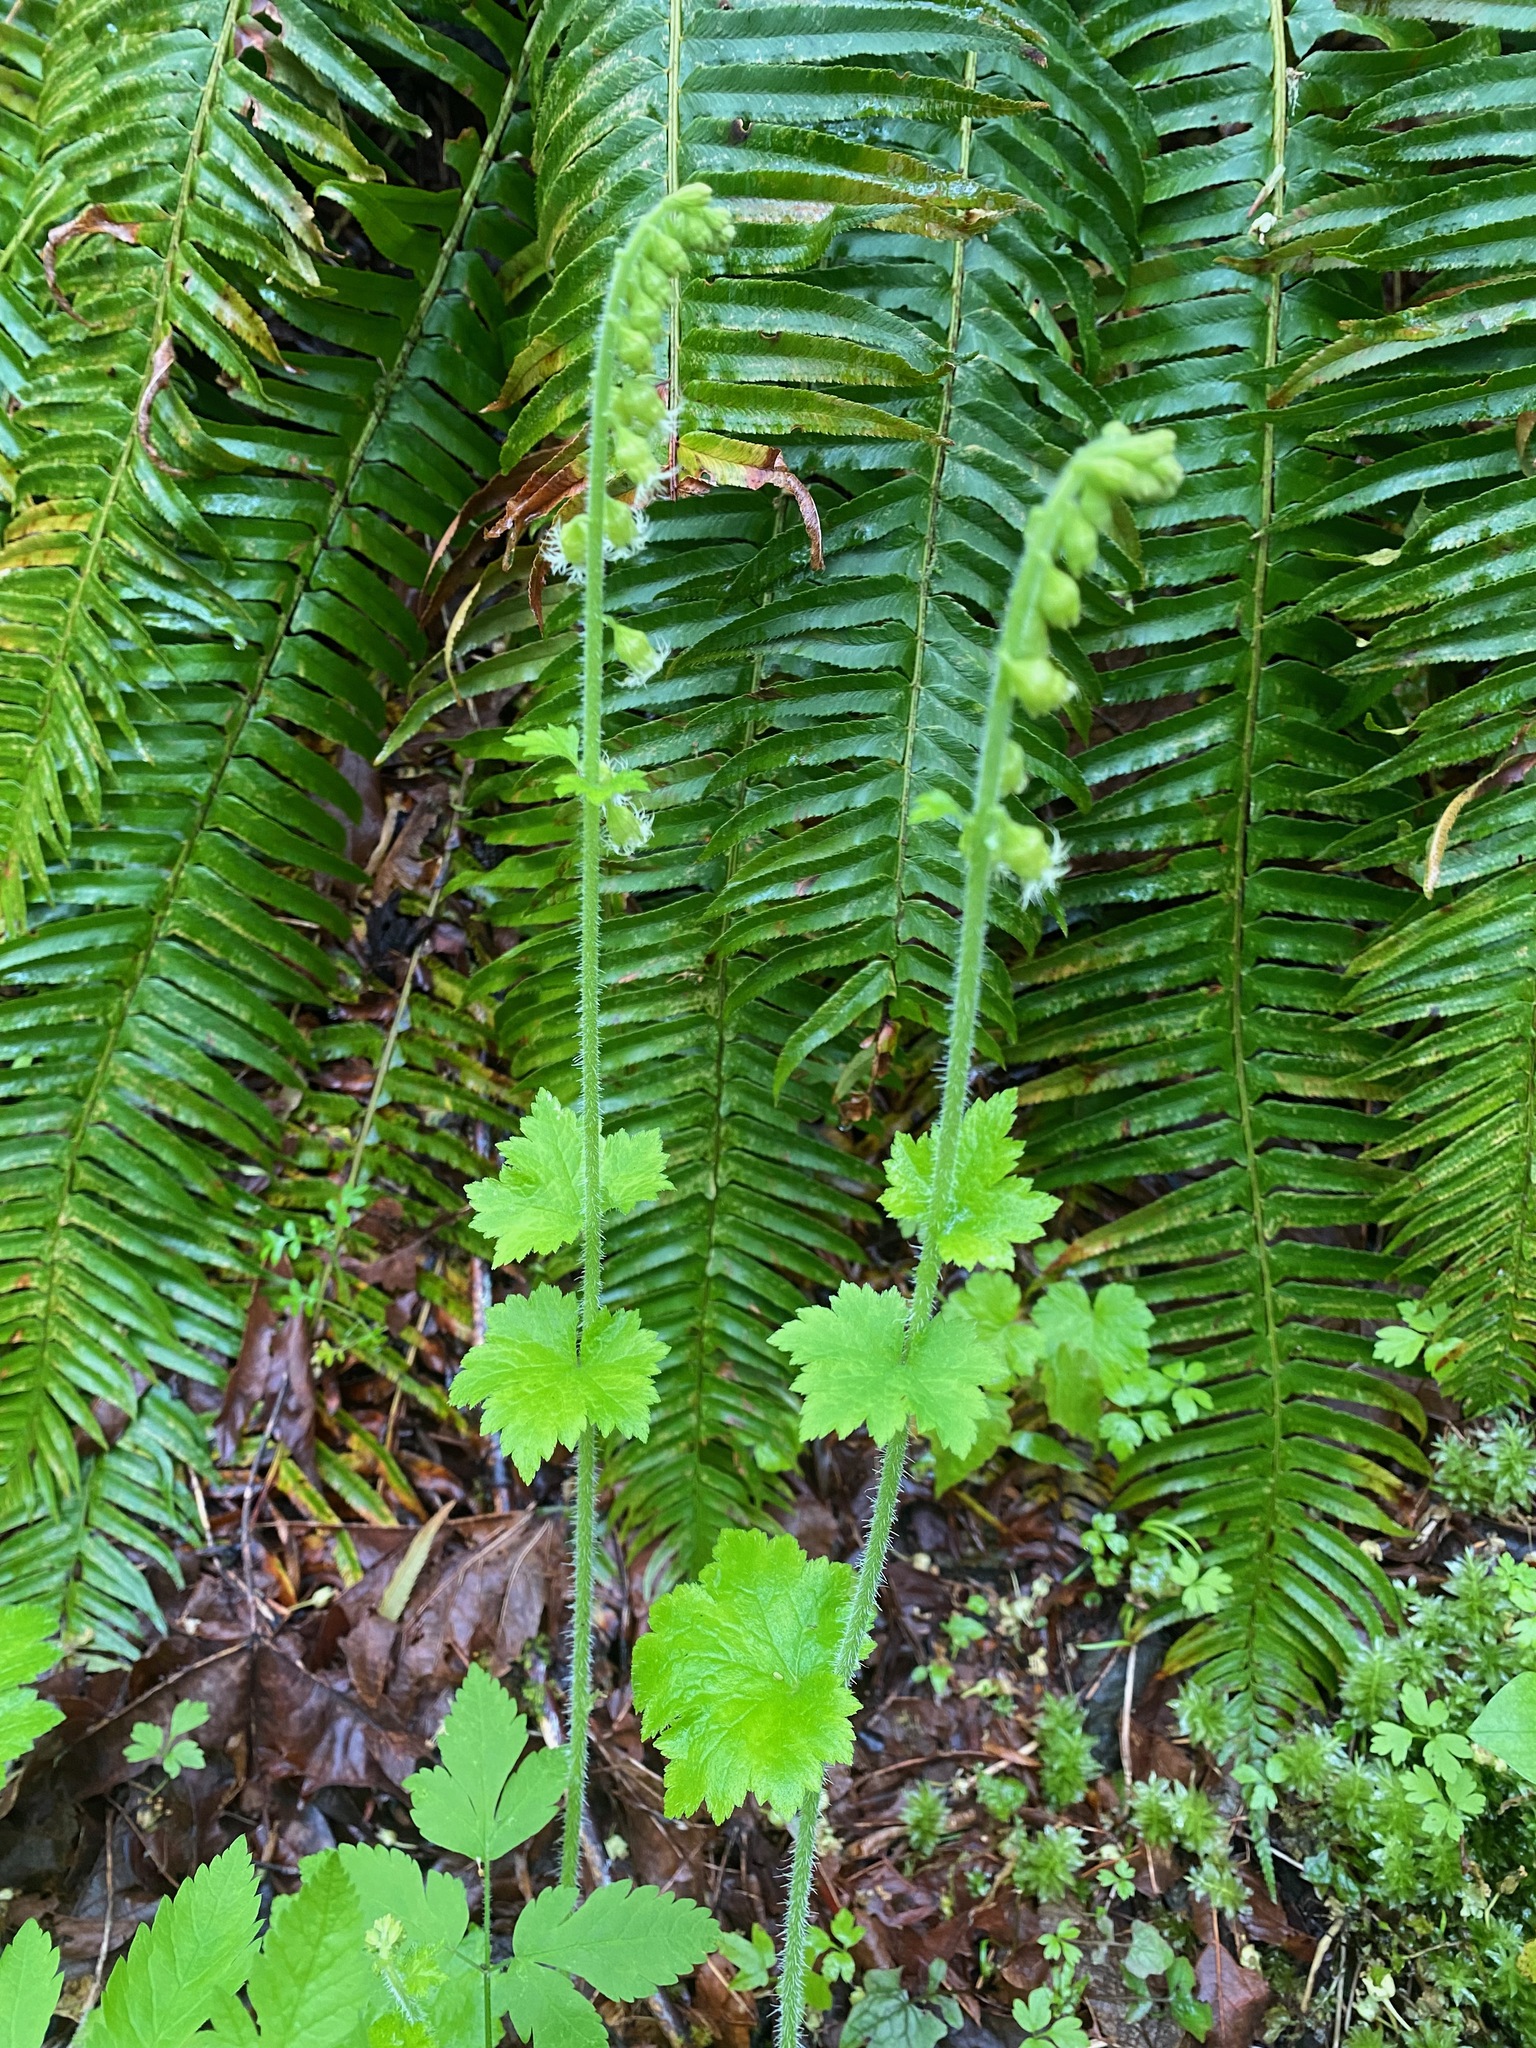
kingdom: Plantae
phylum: Tracheophyta
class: Magnoliopsida
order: Saxifragales
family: Saxifragaceae
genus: Tellima
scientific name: Tellima grandiflora
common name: Fringecups
